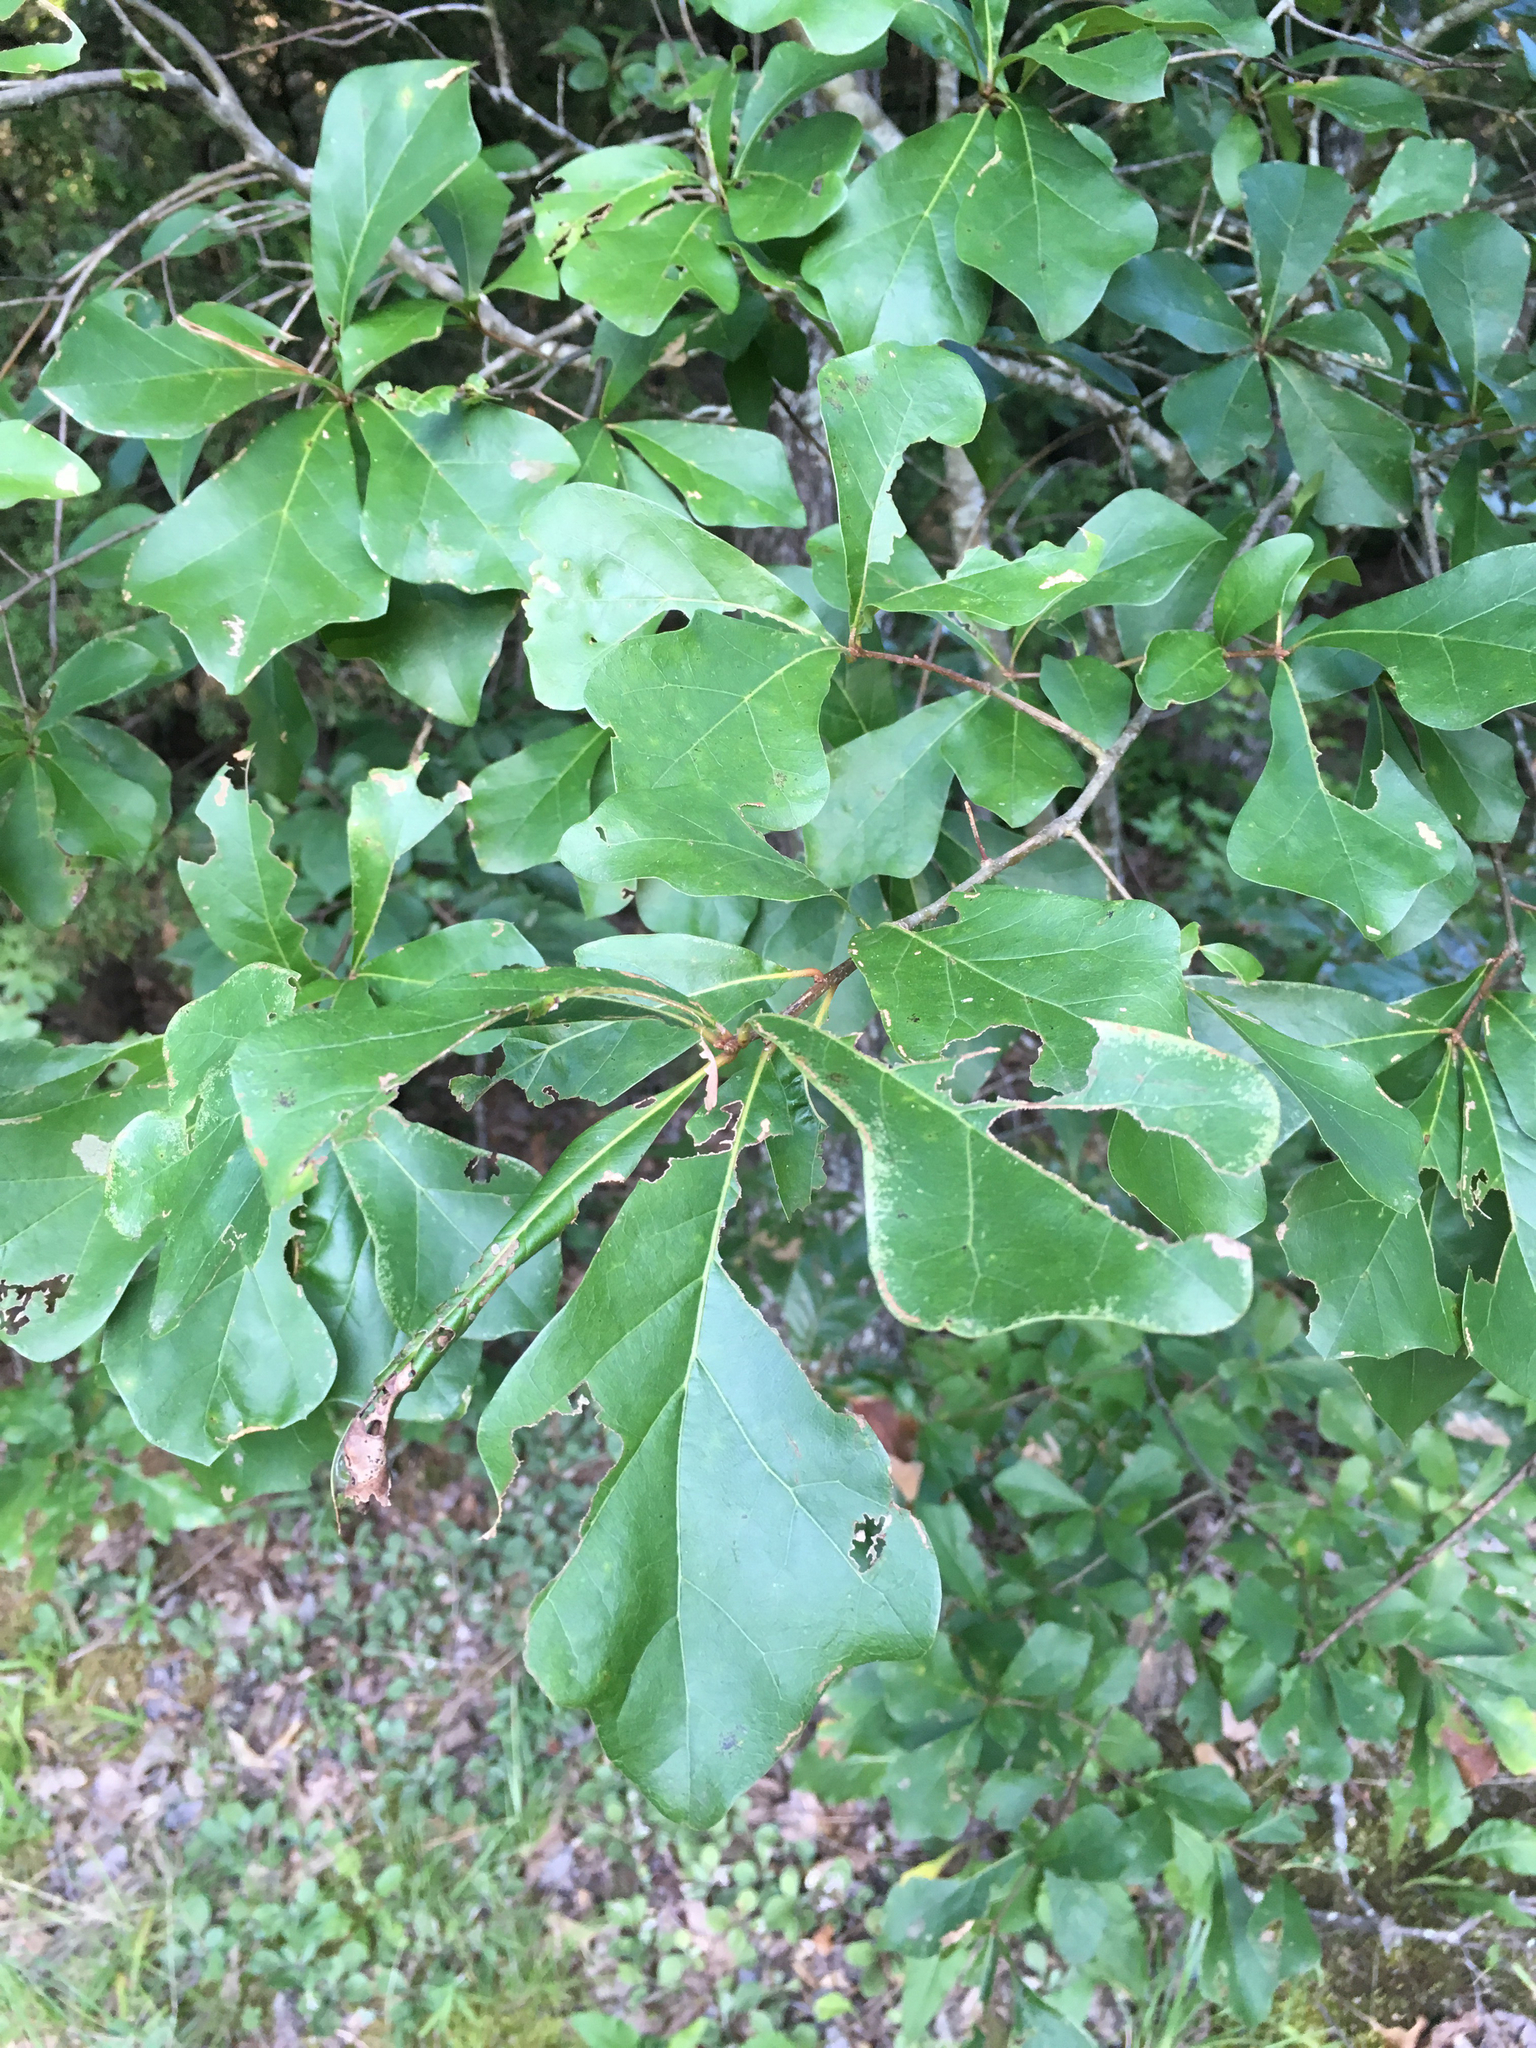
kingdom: Plantae
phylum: Tracheophyta
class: Magnoliopsida
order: Fagales
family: Fagaceae
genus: Quercus
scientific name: Quercus nigra
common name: Water oak
